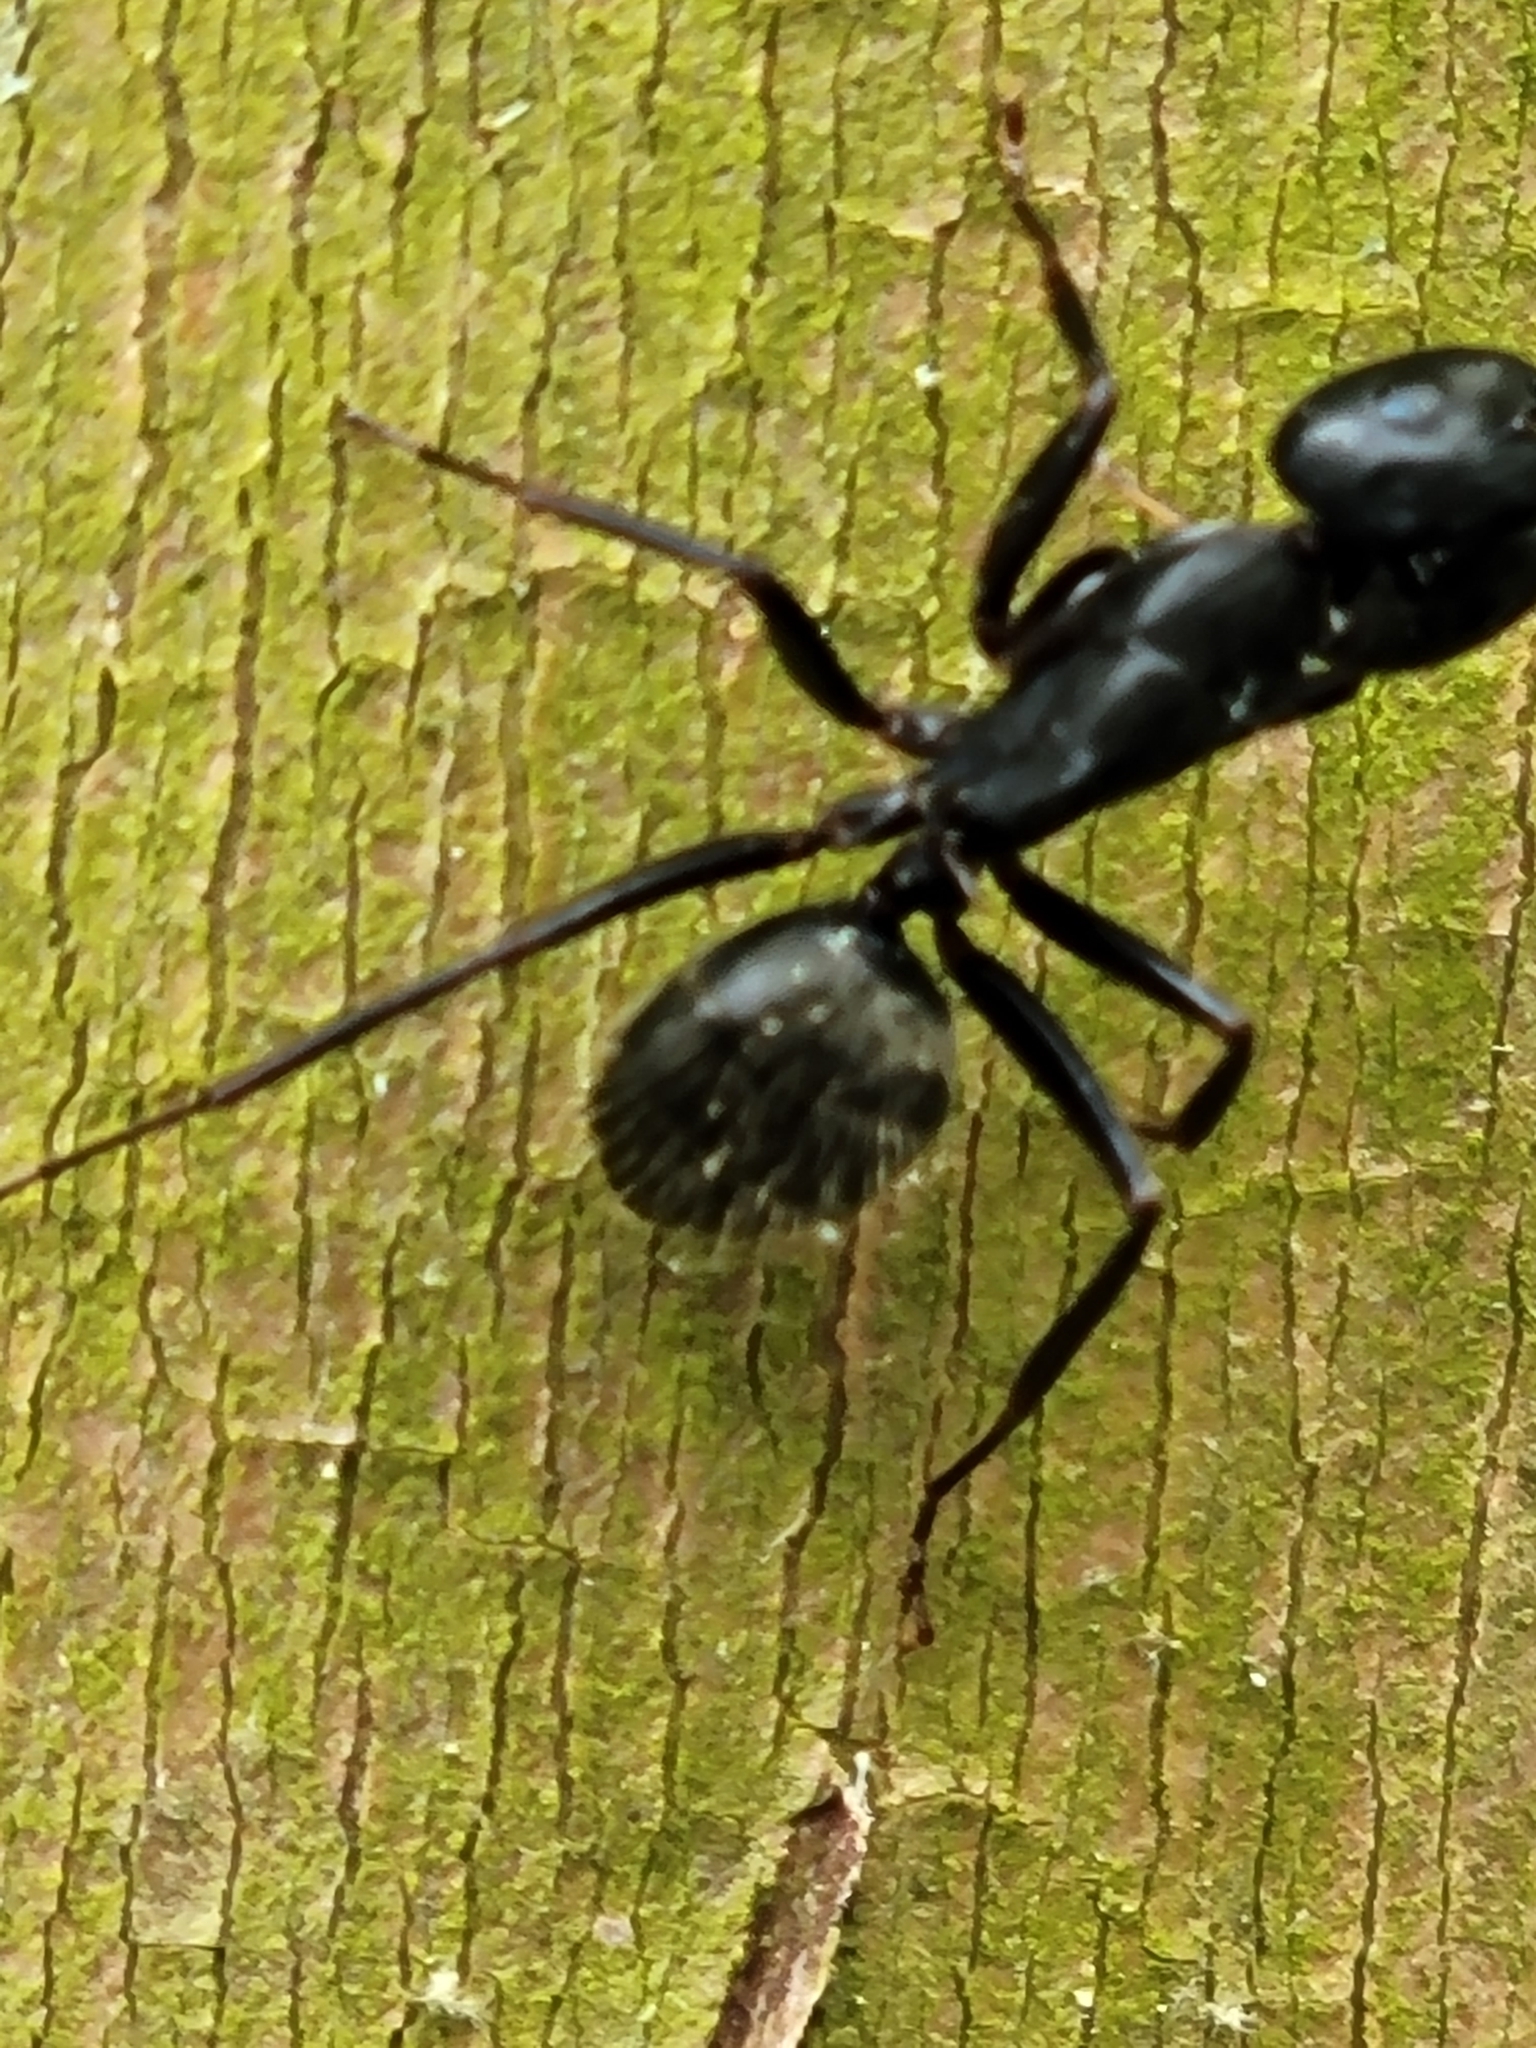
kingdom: Animalia
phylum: Arthropoda
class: Insecta
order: Hymenoptera
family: Formicidae
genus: Camponotus
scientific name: Camponotus pennsylvanicus
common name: Black carpenter ant
